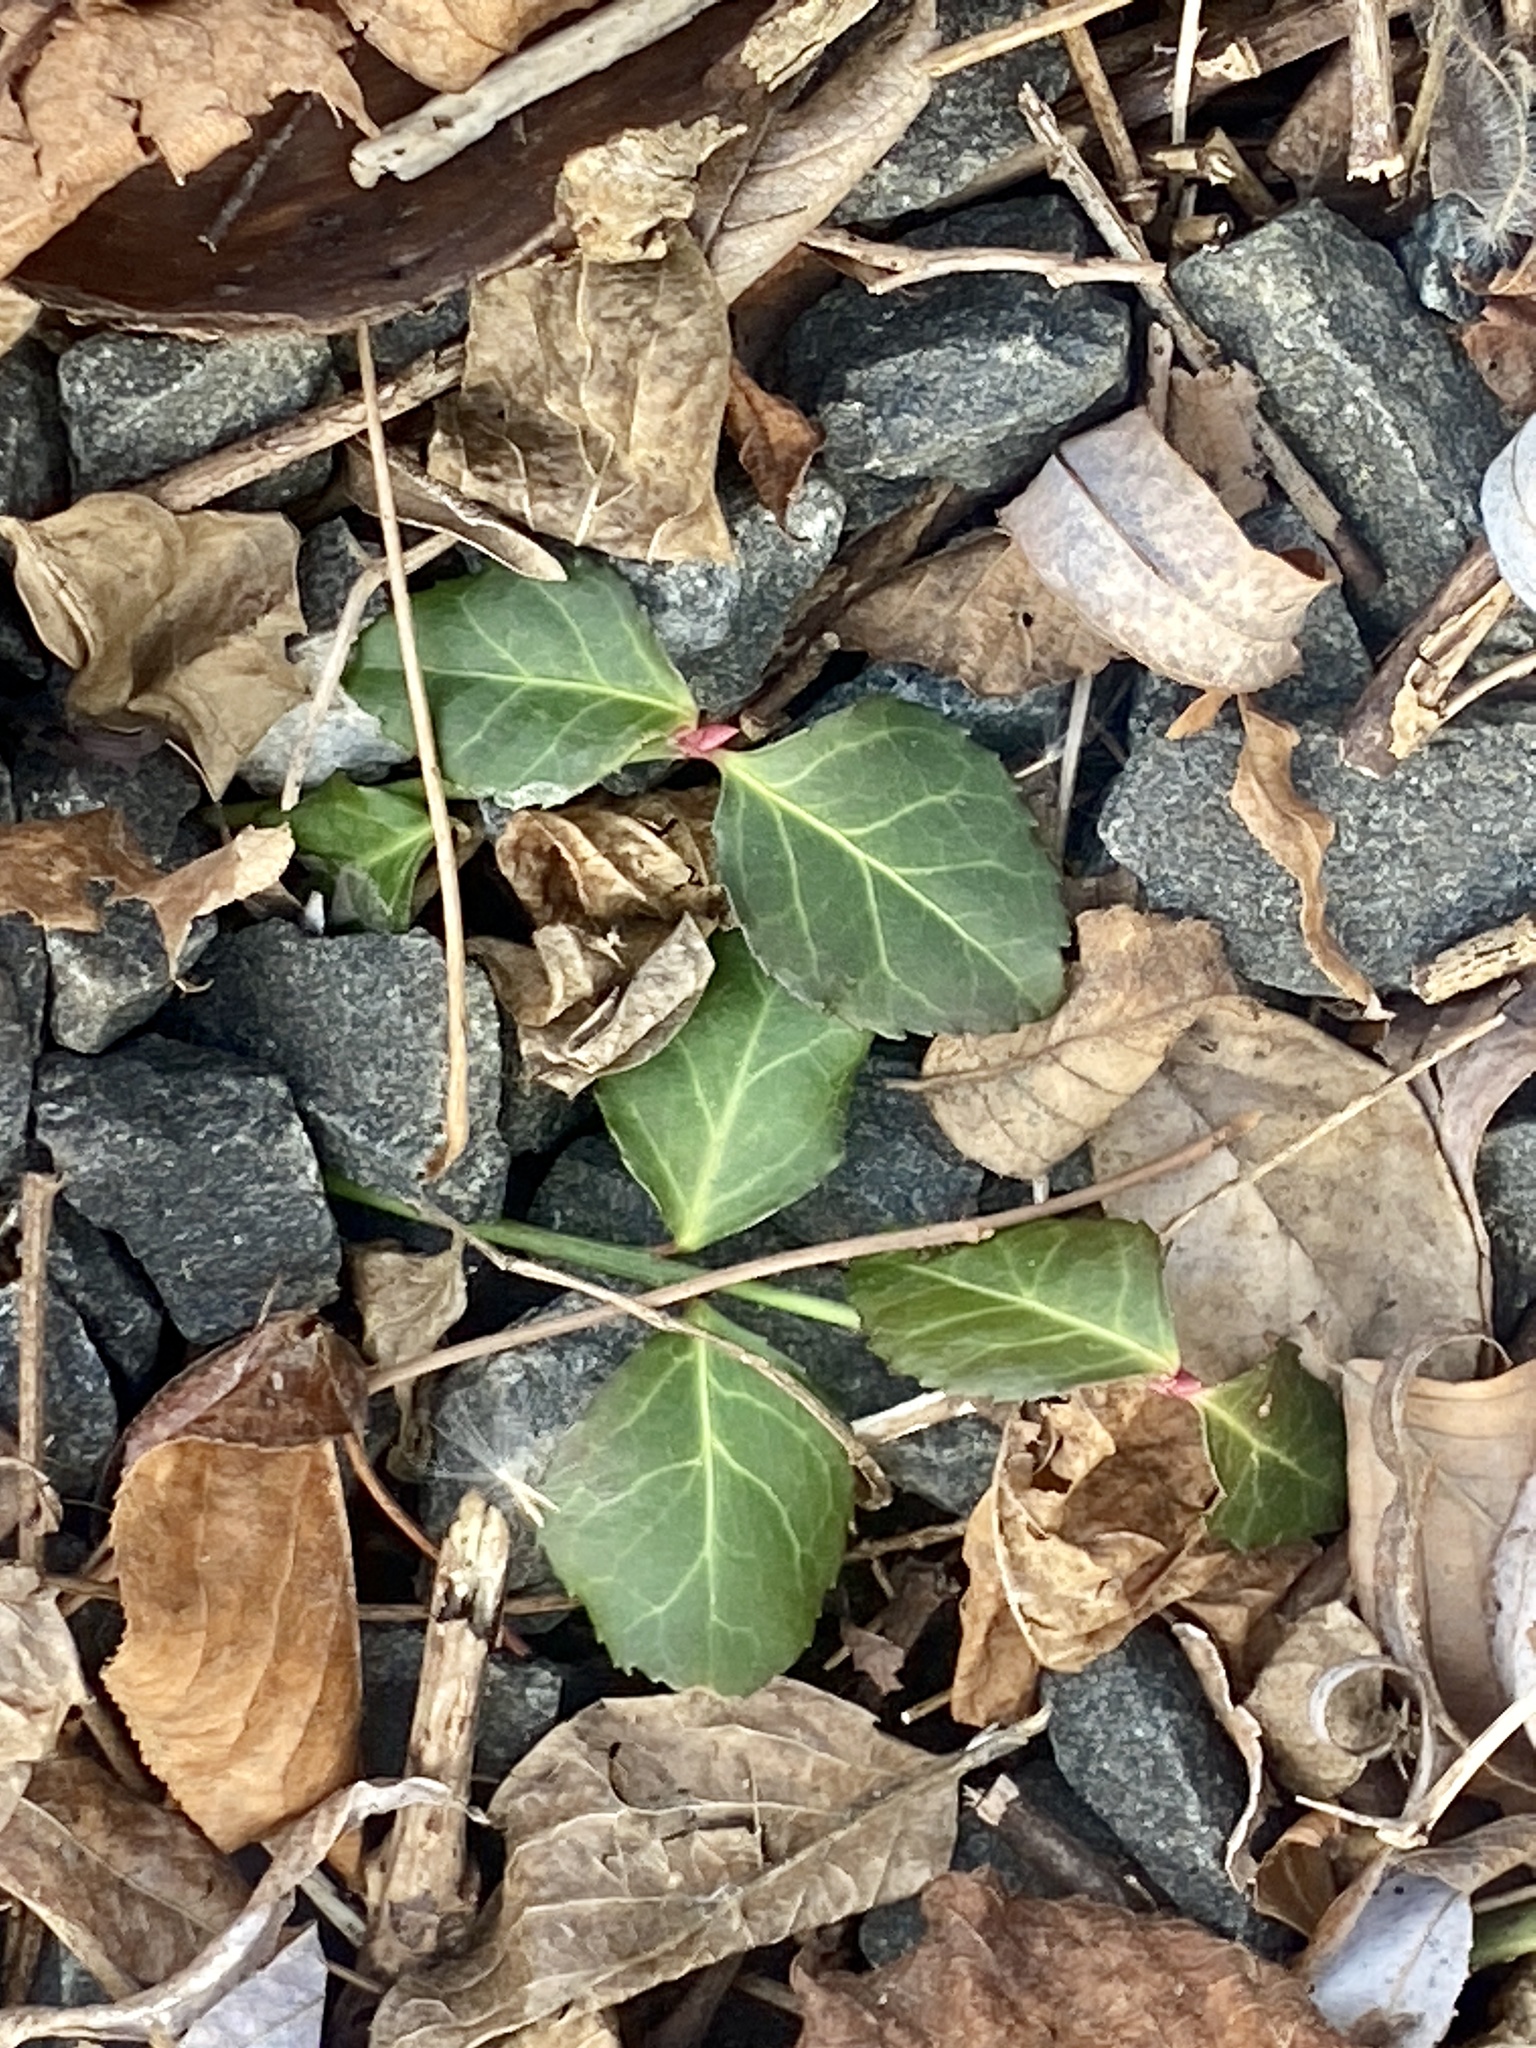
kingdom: Plantae
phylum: Tracheophyta
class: Magnoliopsida
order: Celastrales
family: Celastraceae
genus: Euonymus
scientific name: Euonymus fortunei
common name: Climbing euonymus
